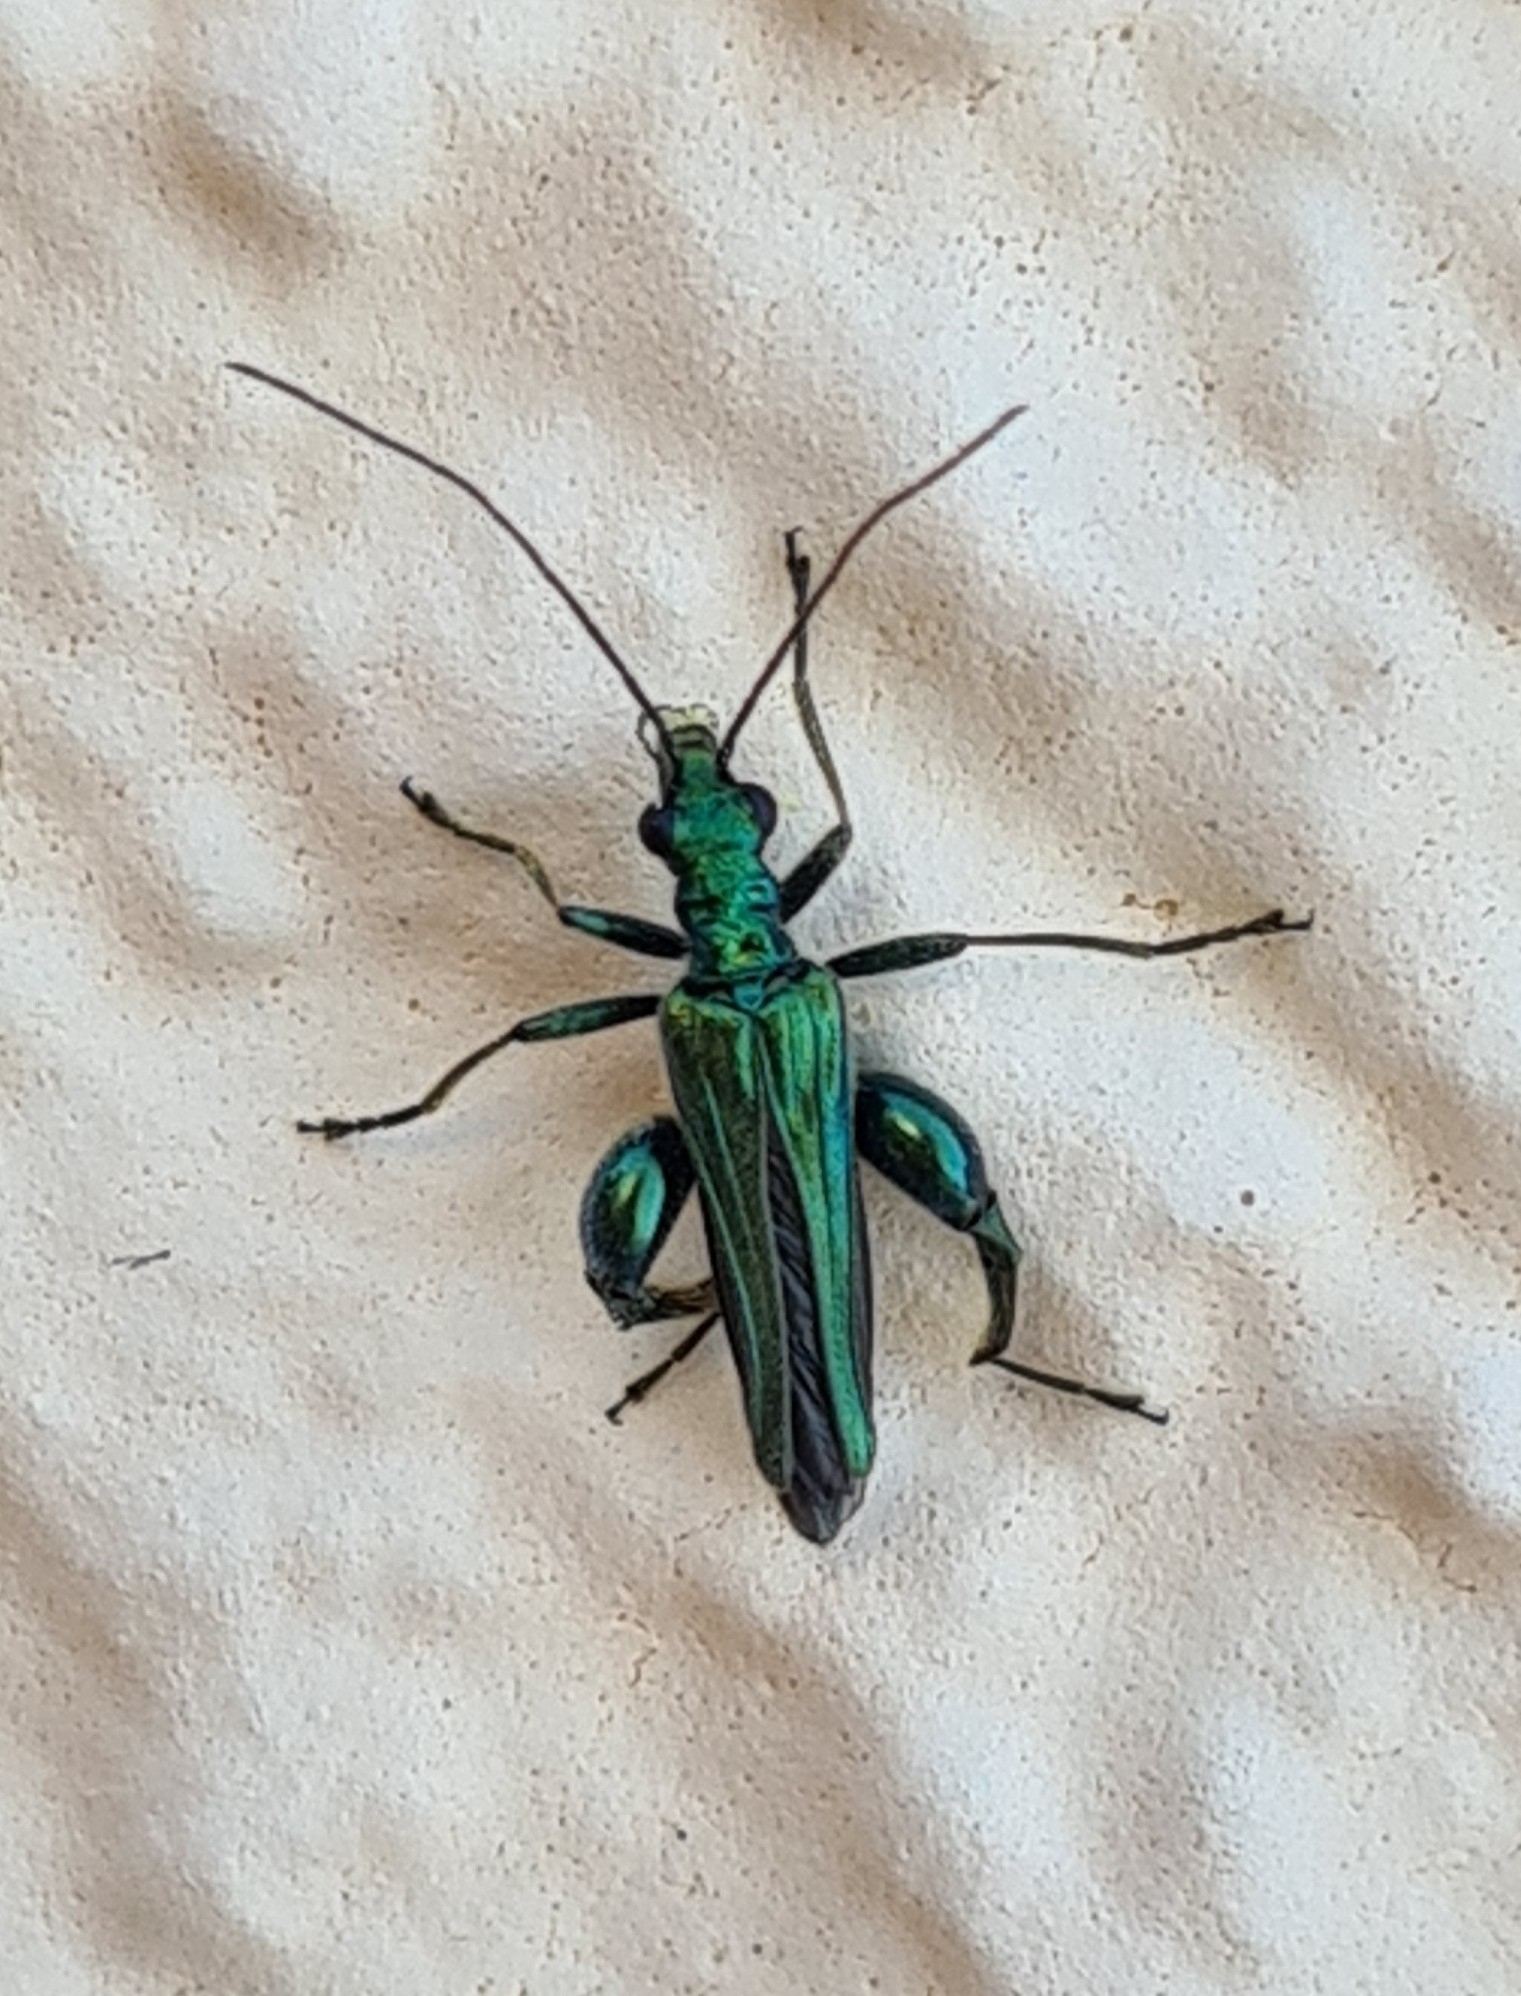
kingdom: Animalia
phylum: Arthropoda
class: Insecta
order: Coleoptera
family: Oedemeridae
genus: Oedemera
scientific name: Oedemera nobilis
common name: Swollen-thighed beetle
